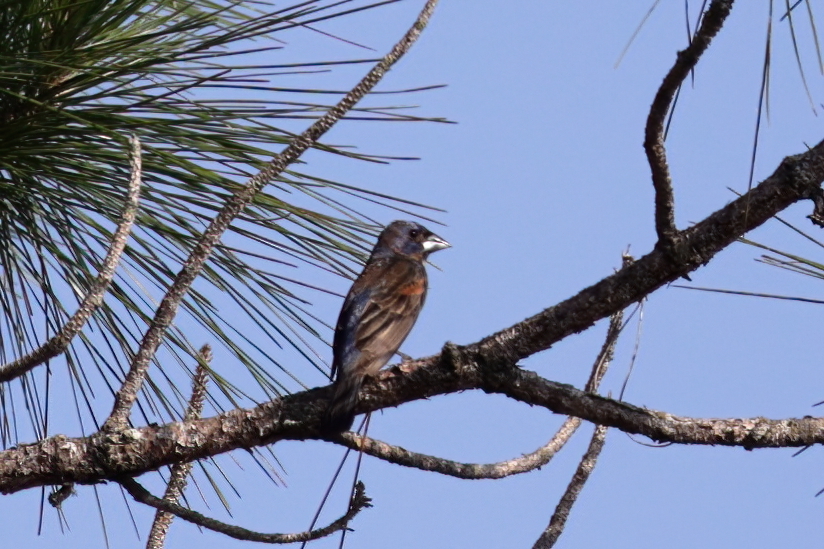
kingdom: Animalia
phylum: Chordata
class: Aves
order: Passeriformes
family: Cardinalidae
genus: Passerina
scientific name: Passerina caerulea
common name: Blue grosbeak
